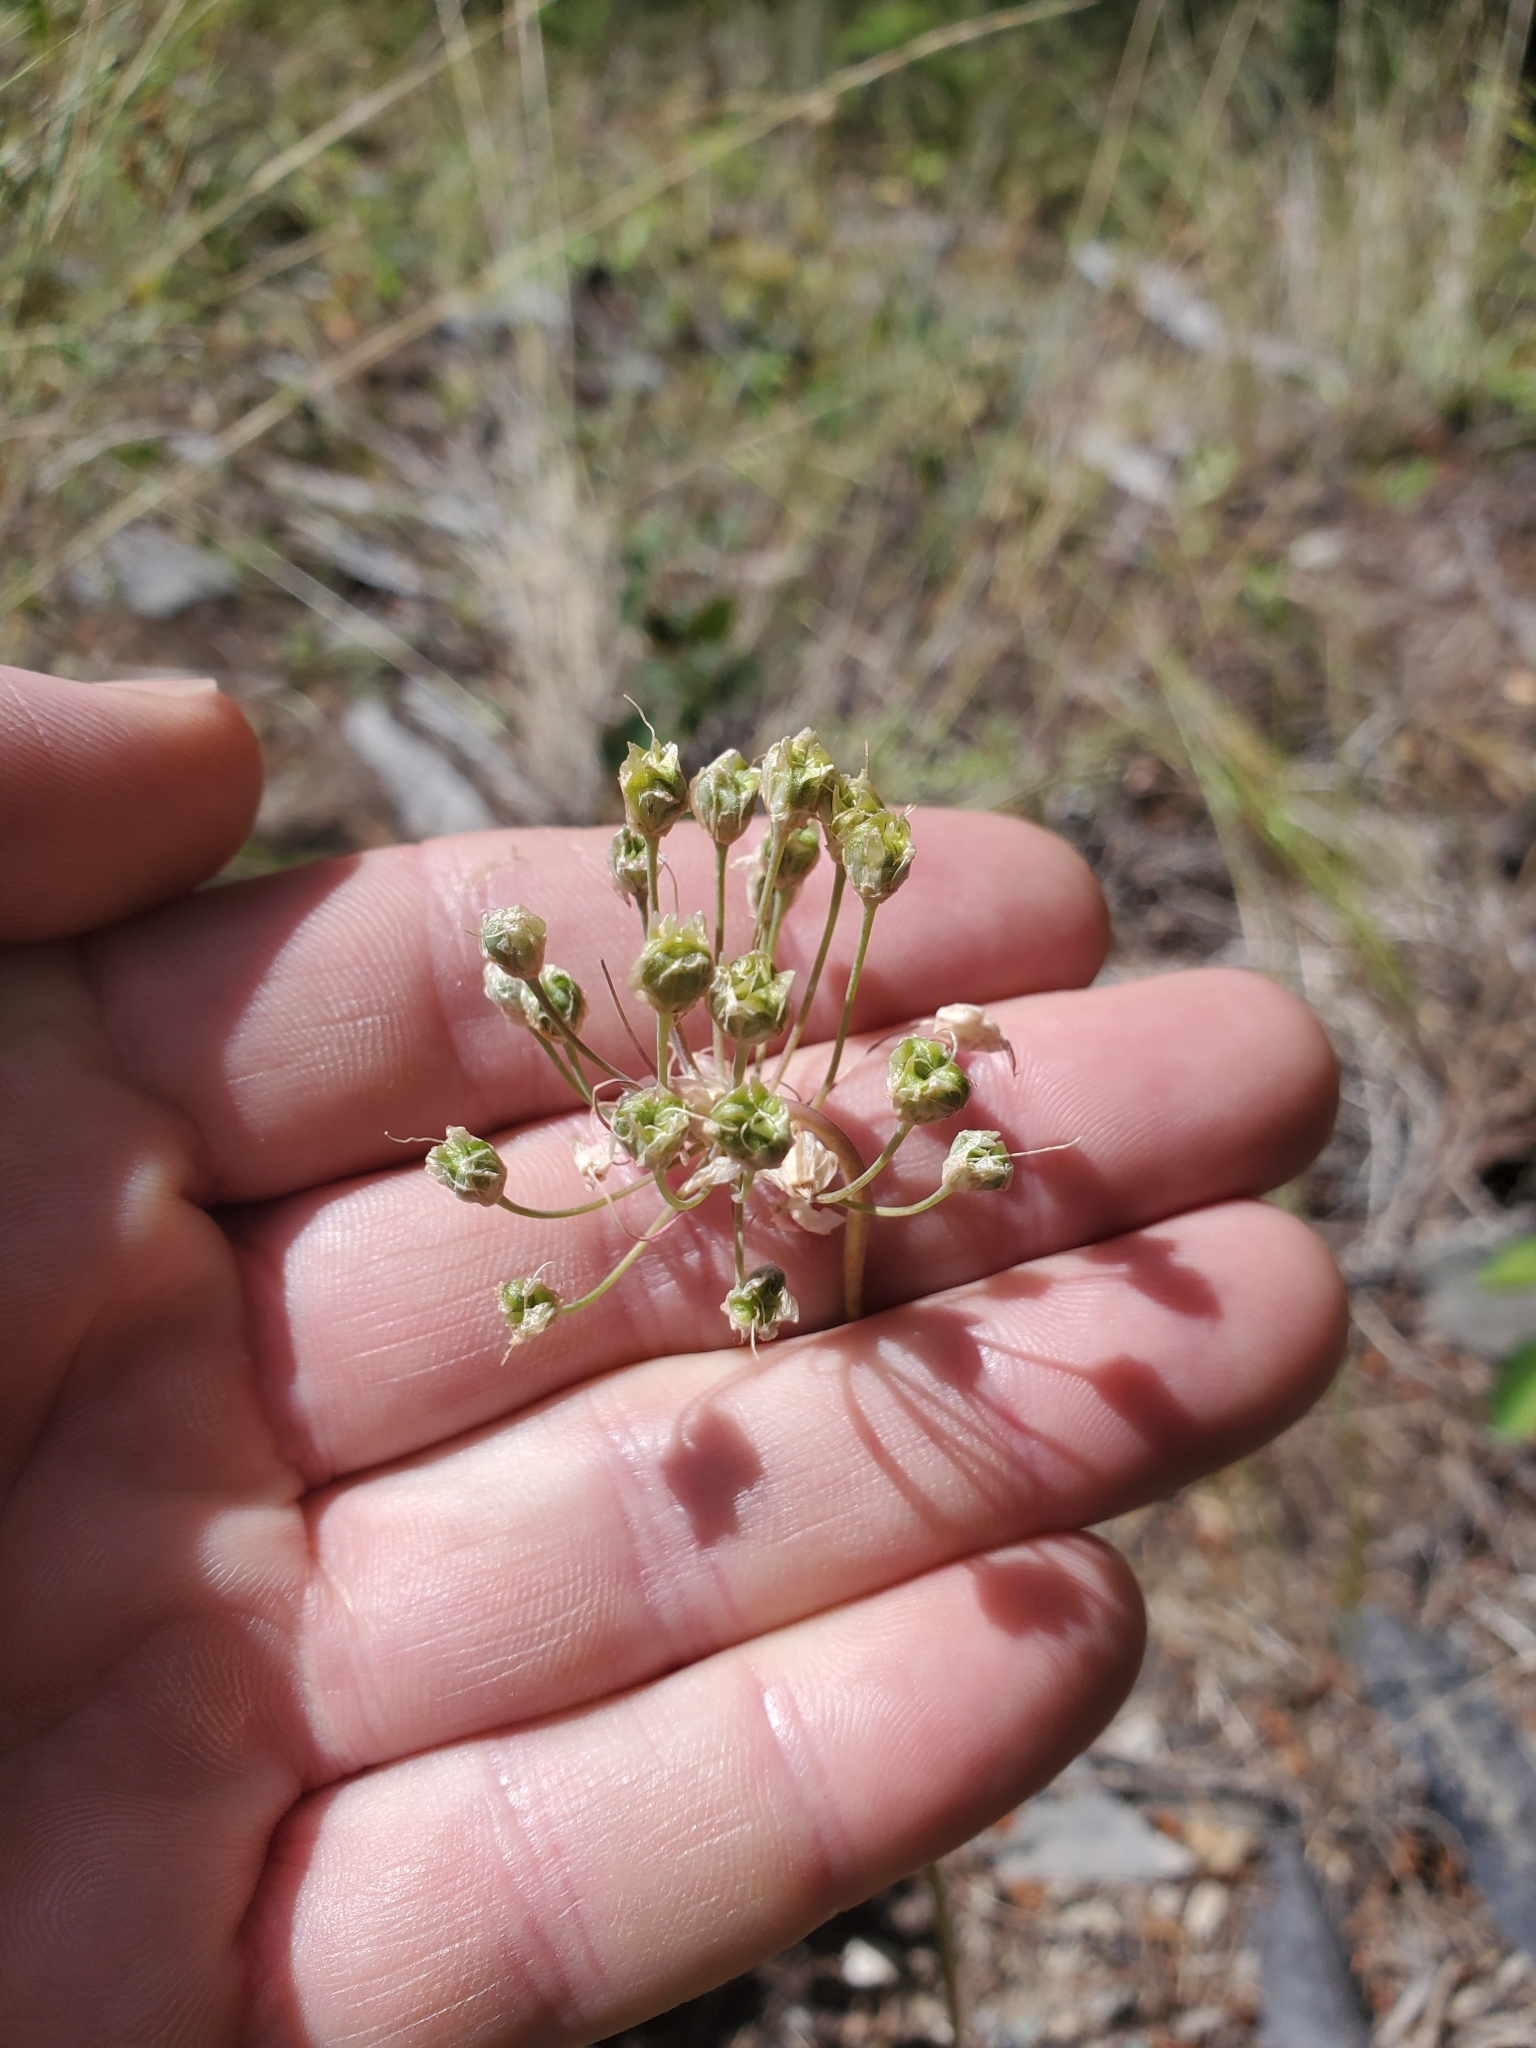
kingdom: Plantae
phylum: Tracheophyta
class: Liliopsida
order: Asparagales
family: Amaryllidaceae
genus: Allium
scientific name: Allium cernuum
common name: Nodding onion
